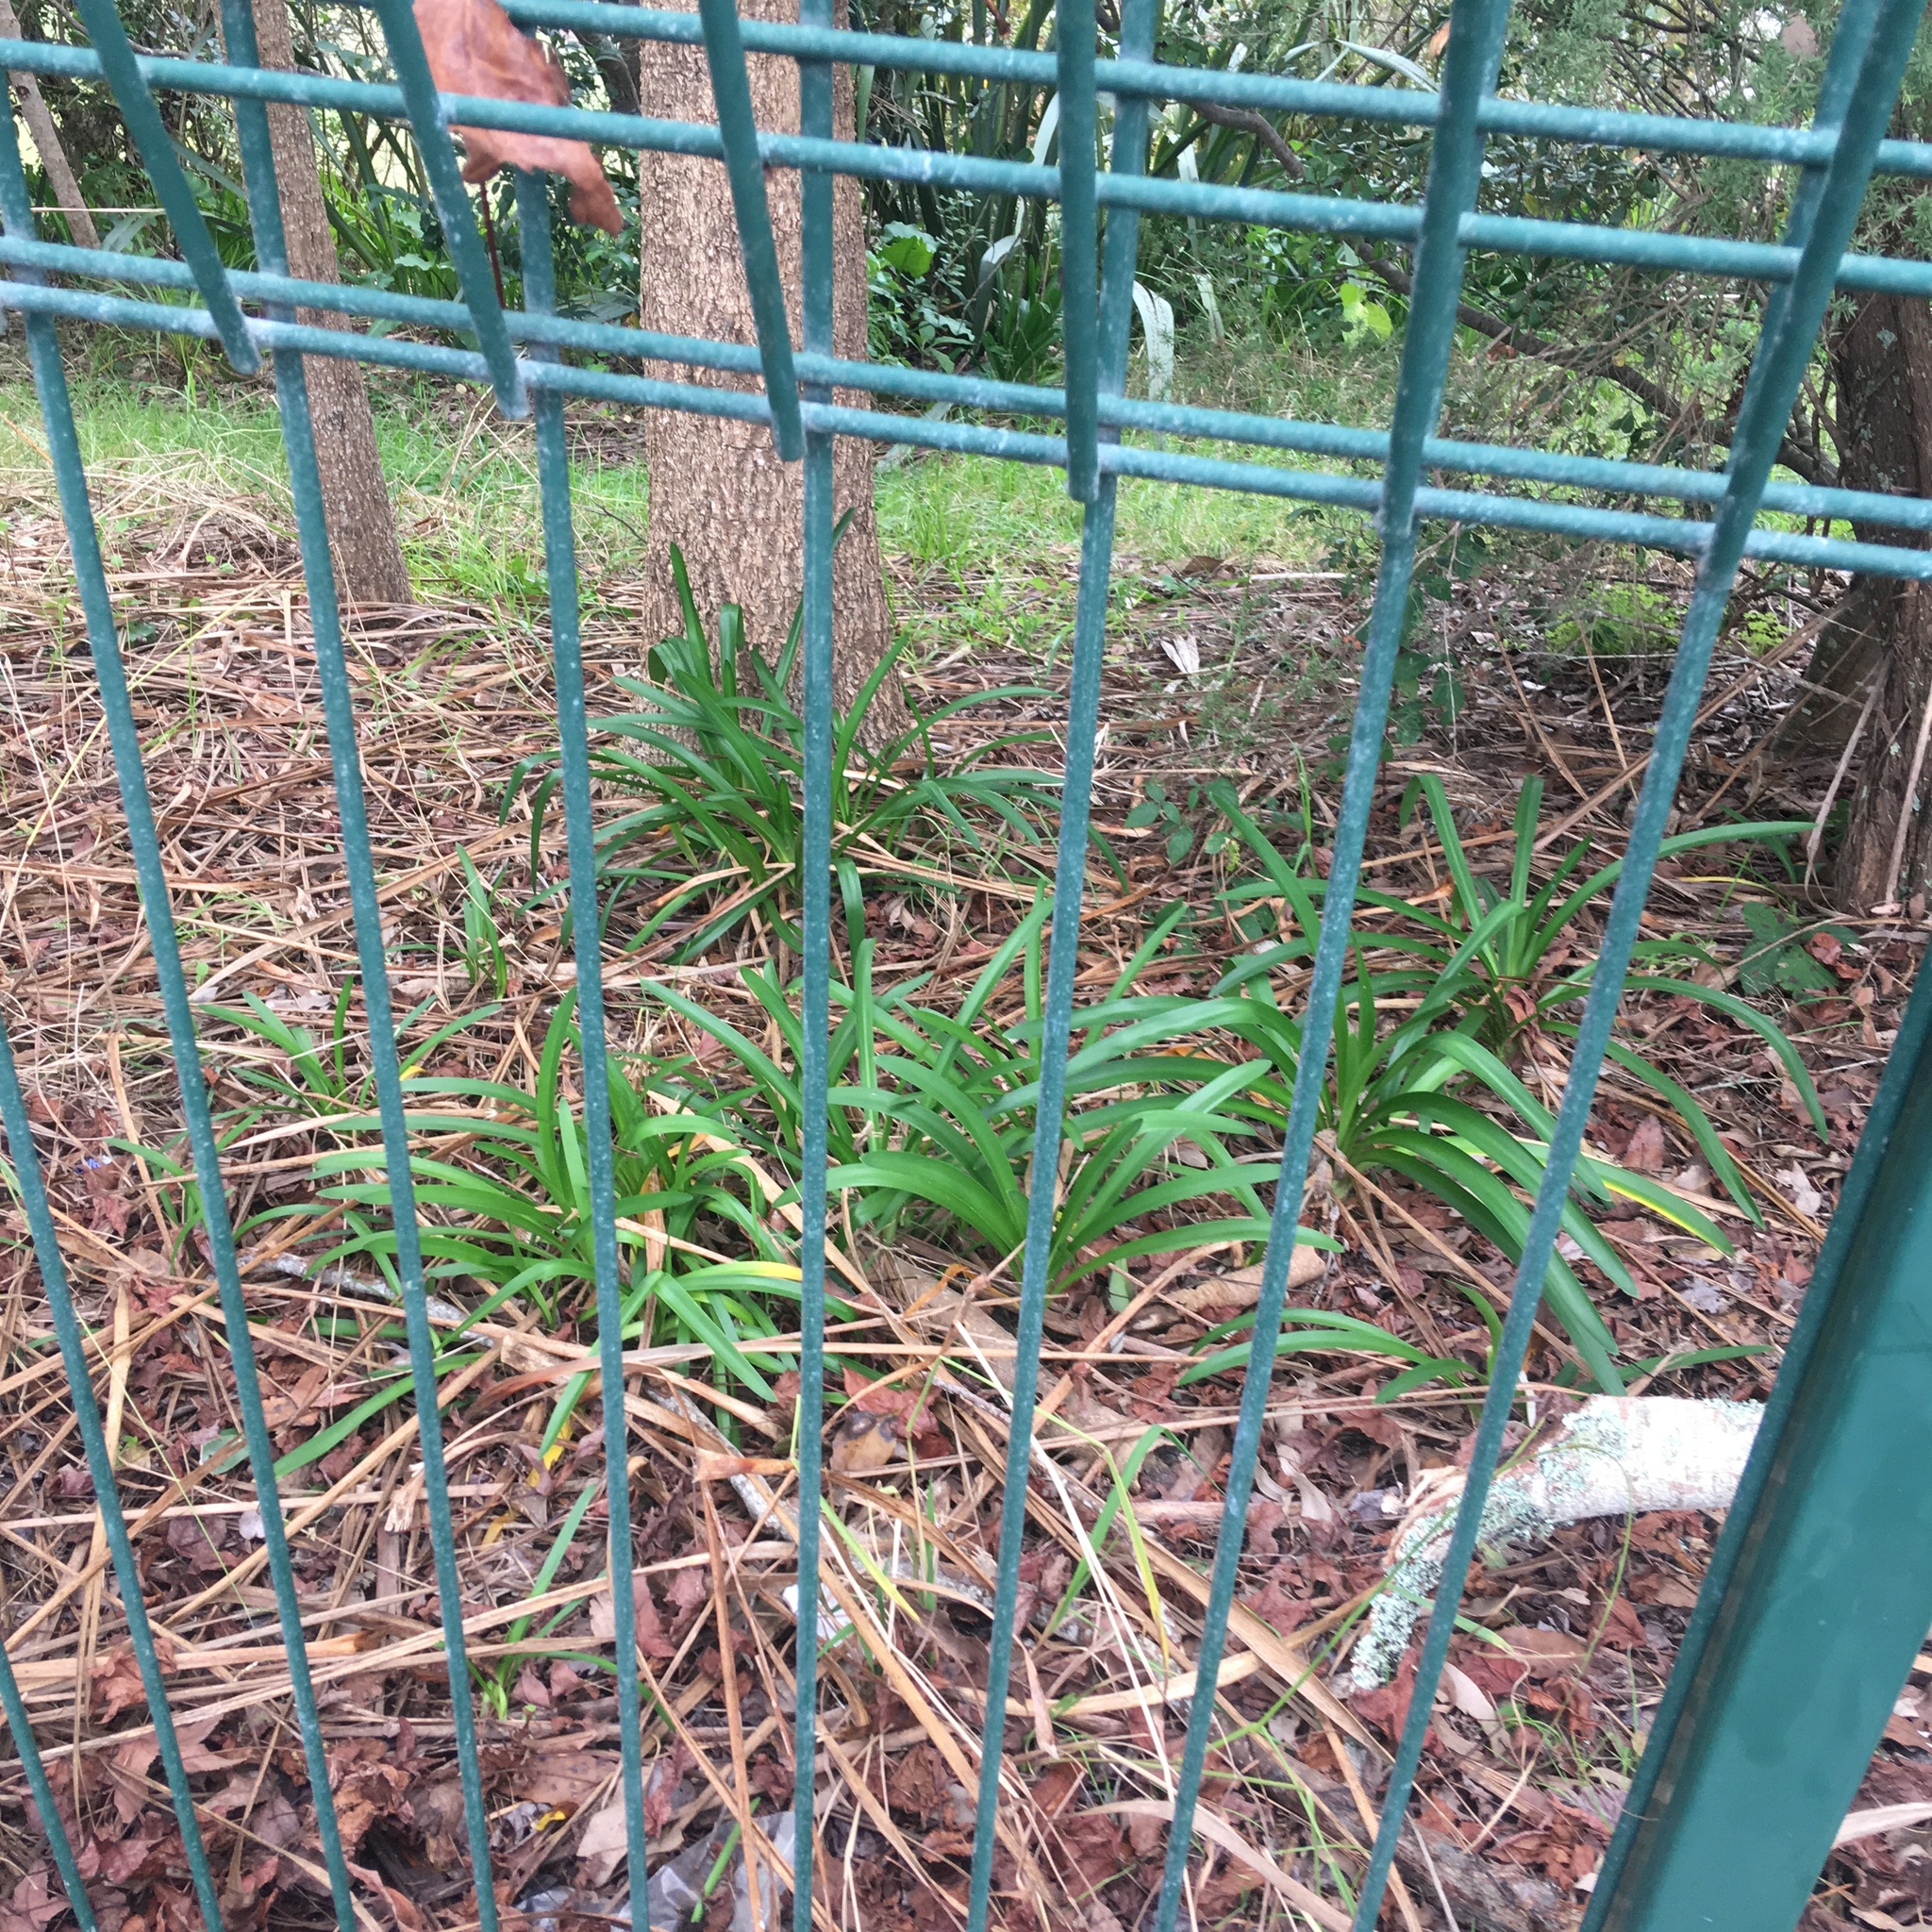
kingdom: Plantae
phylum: Tracheophyta
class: Liliopsida
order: Asparagales
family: Amaryllidaceae
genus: Agapanthus
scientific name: Agapanthus praecox
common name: African-lily
